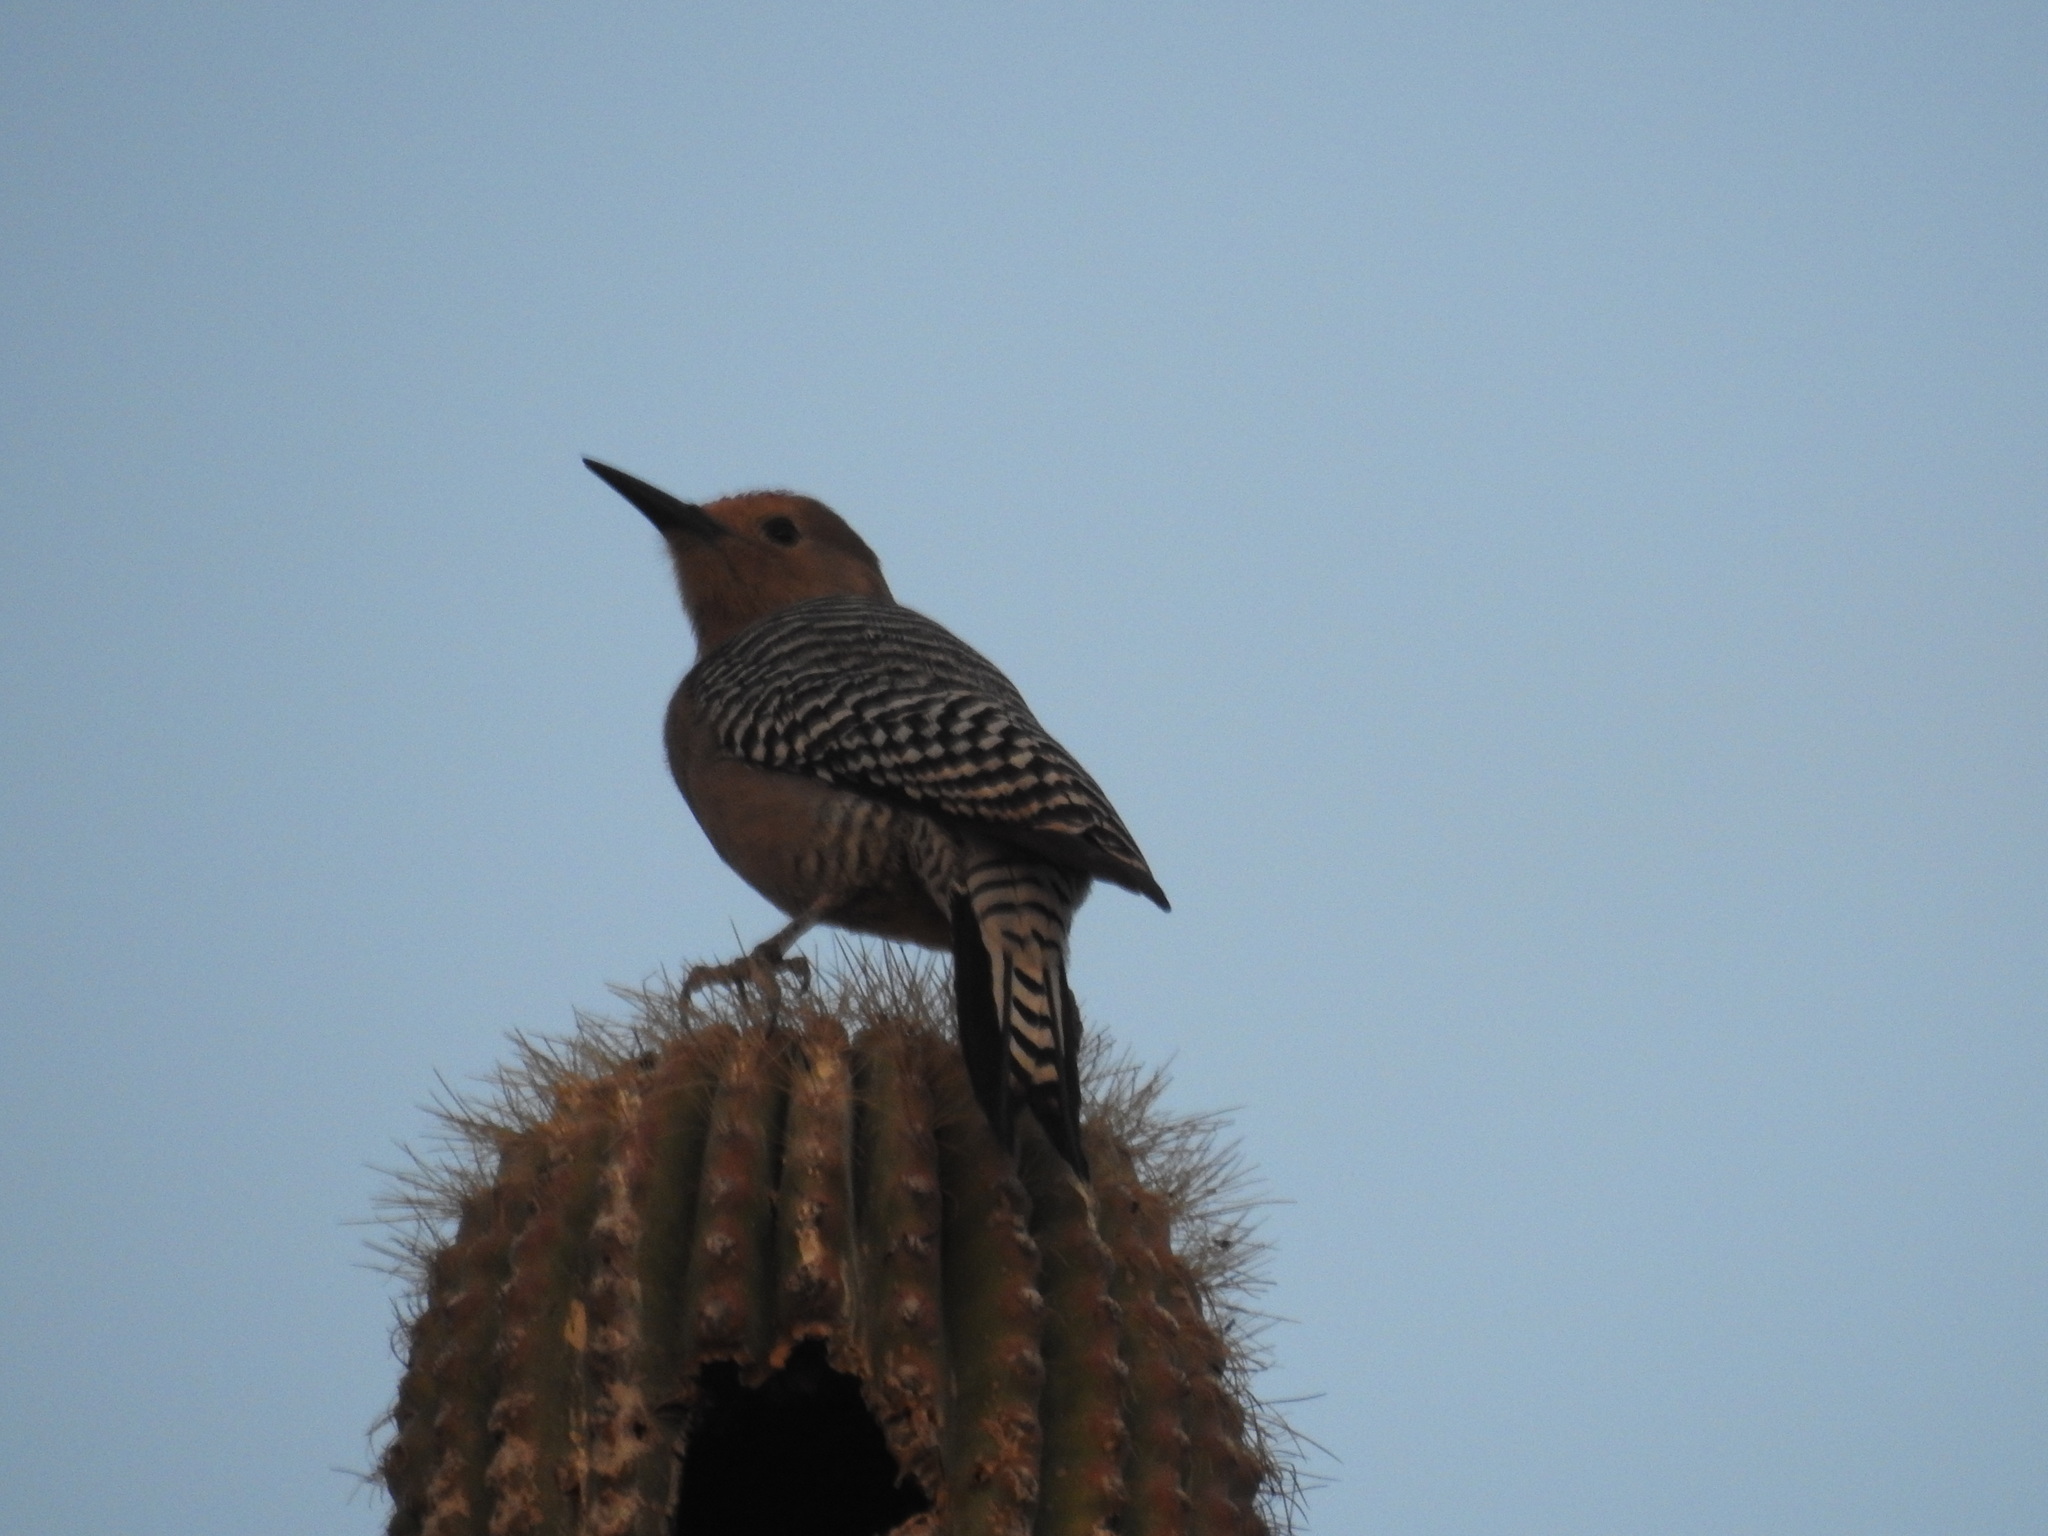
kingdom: Animalia
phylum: Chordata
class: Aves
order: Piciformes
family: Picidae
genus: Melanerpes
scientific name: Melanerpes uropygialis
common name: Gila woodpecker
